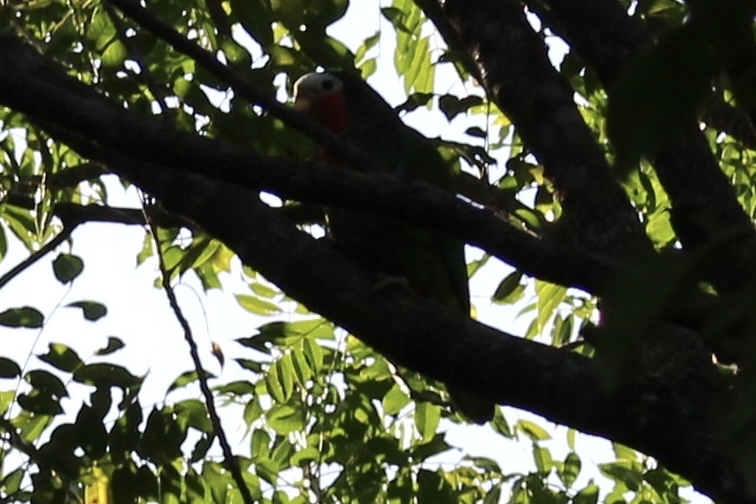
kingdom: Animalia
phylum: Chordata
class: Aves
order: Psittaciformes
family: Psittacidae
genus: Amazona
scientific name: Amazona leucocephala
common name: Cuban amazon
